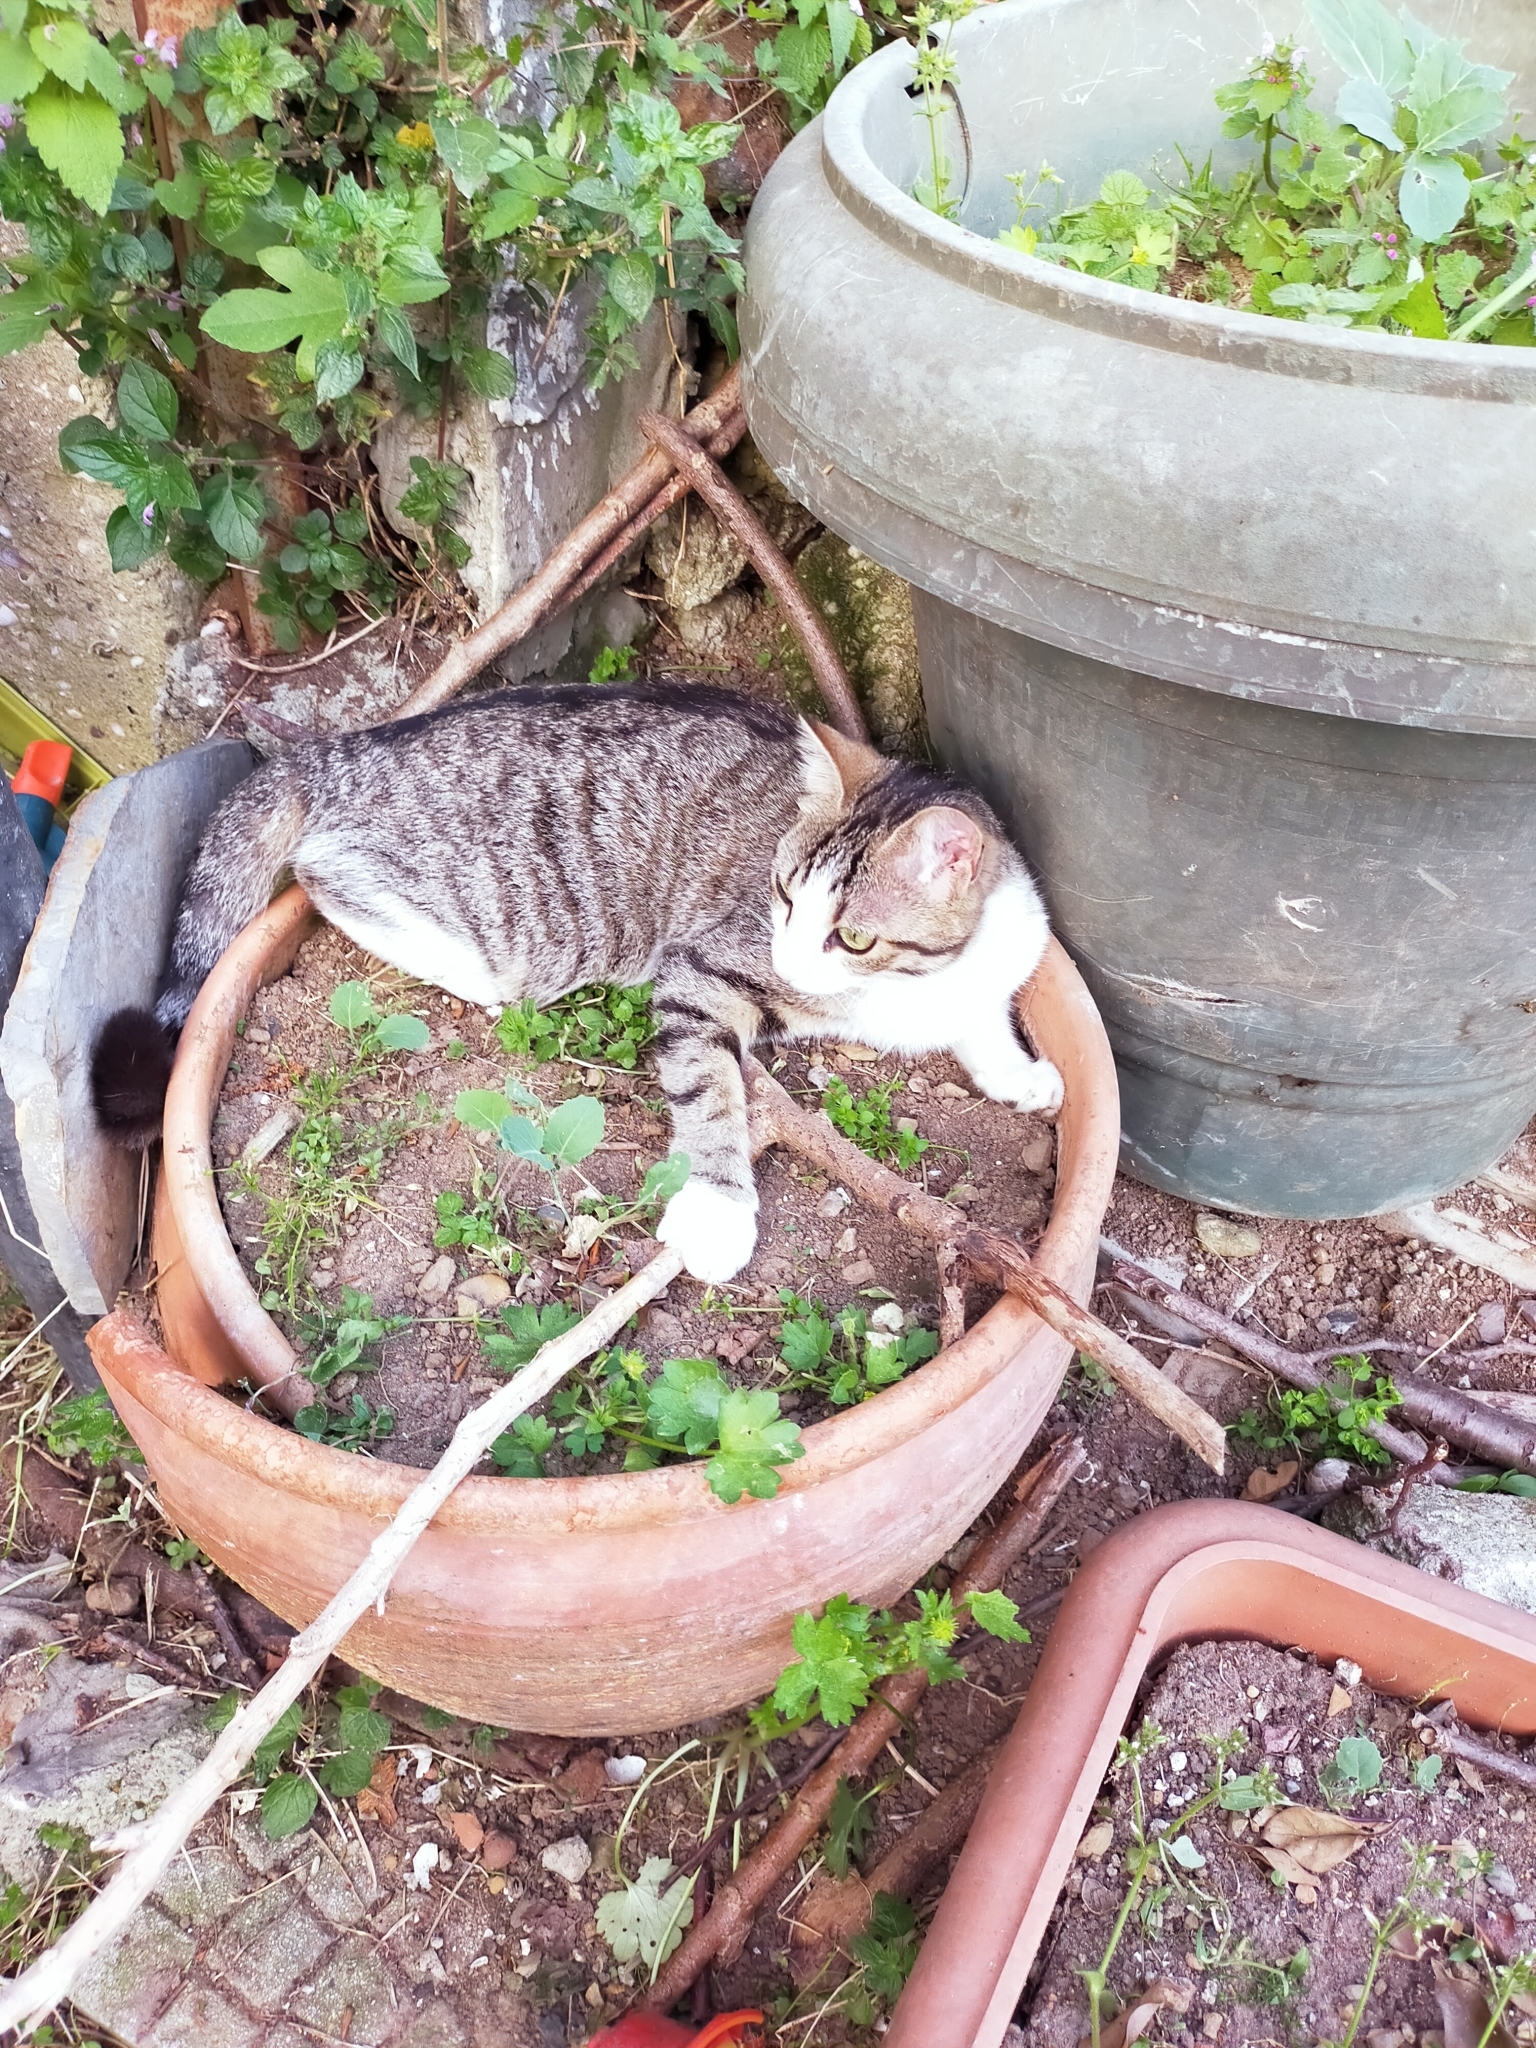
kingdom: Animalia
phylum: Chordata
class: Mammalia
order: Carnivora
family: Felidae
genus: Felis
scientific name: Felis catus
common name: Domestic cat
